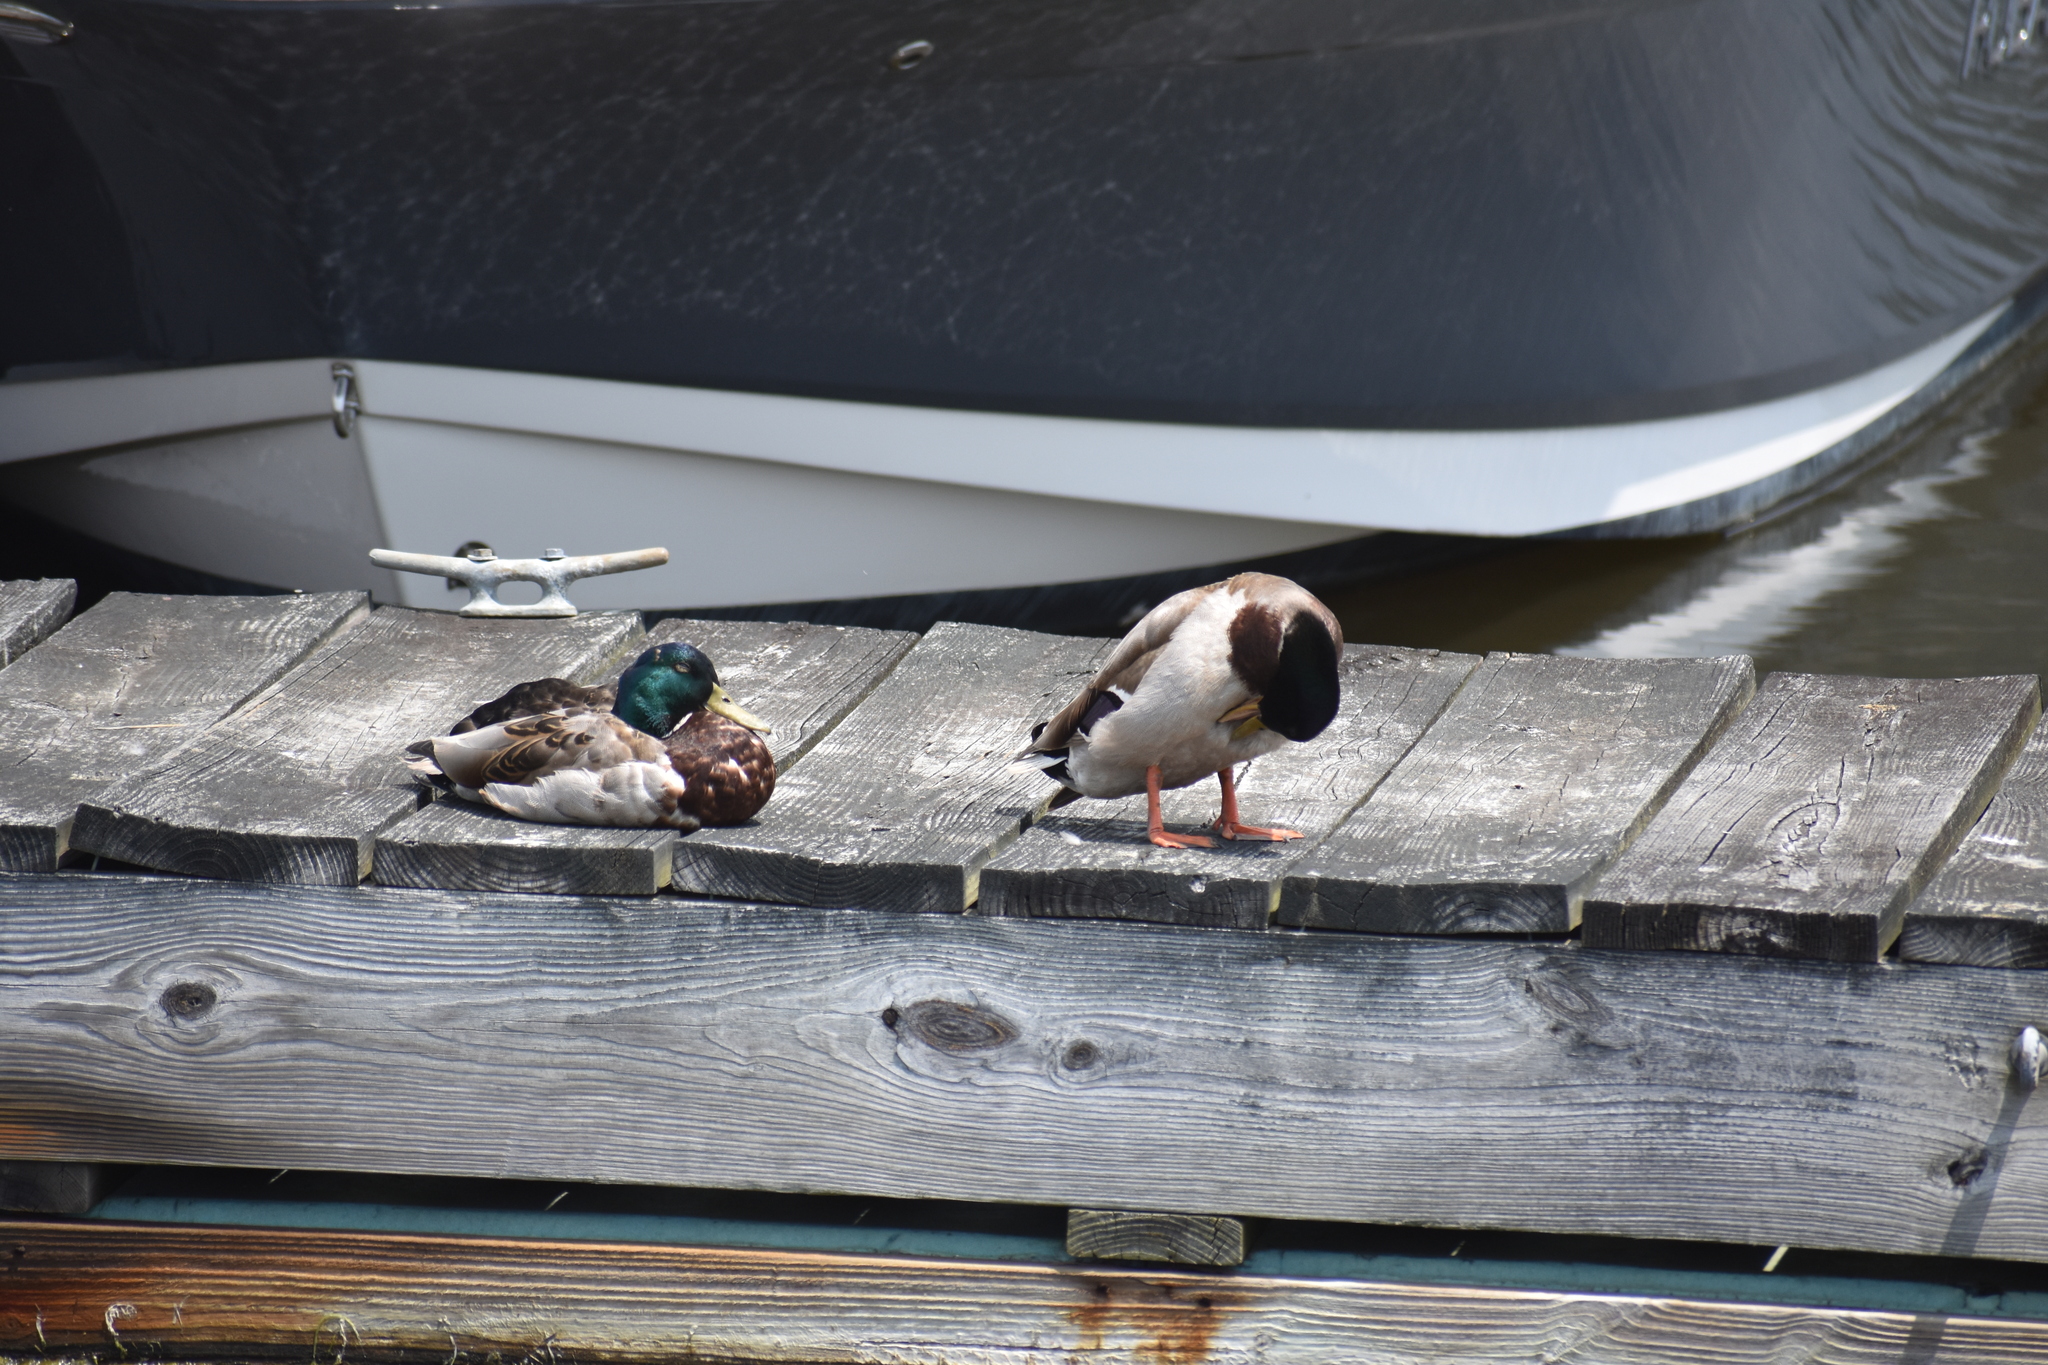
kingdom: Animalia
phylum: Chordata
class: Aves
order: Anseriformes
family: Anatidae
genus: Anas
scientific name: Anas platyrhynchos
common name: Mallard
